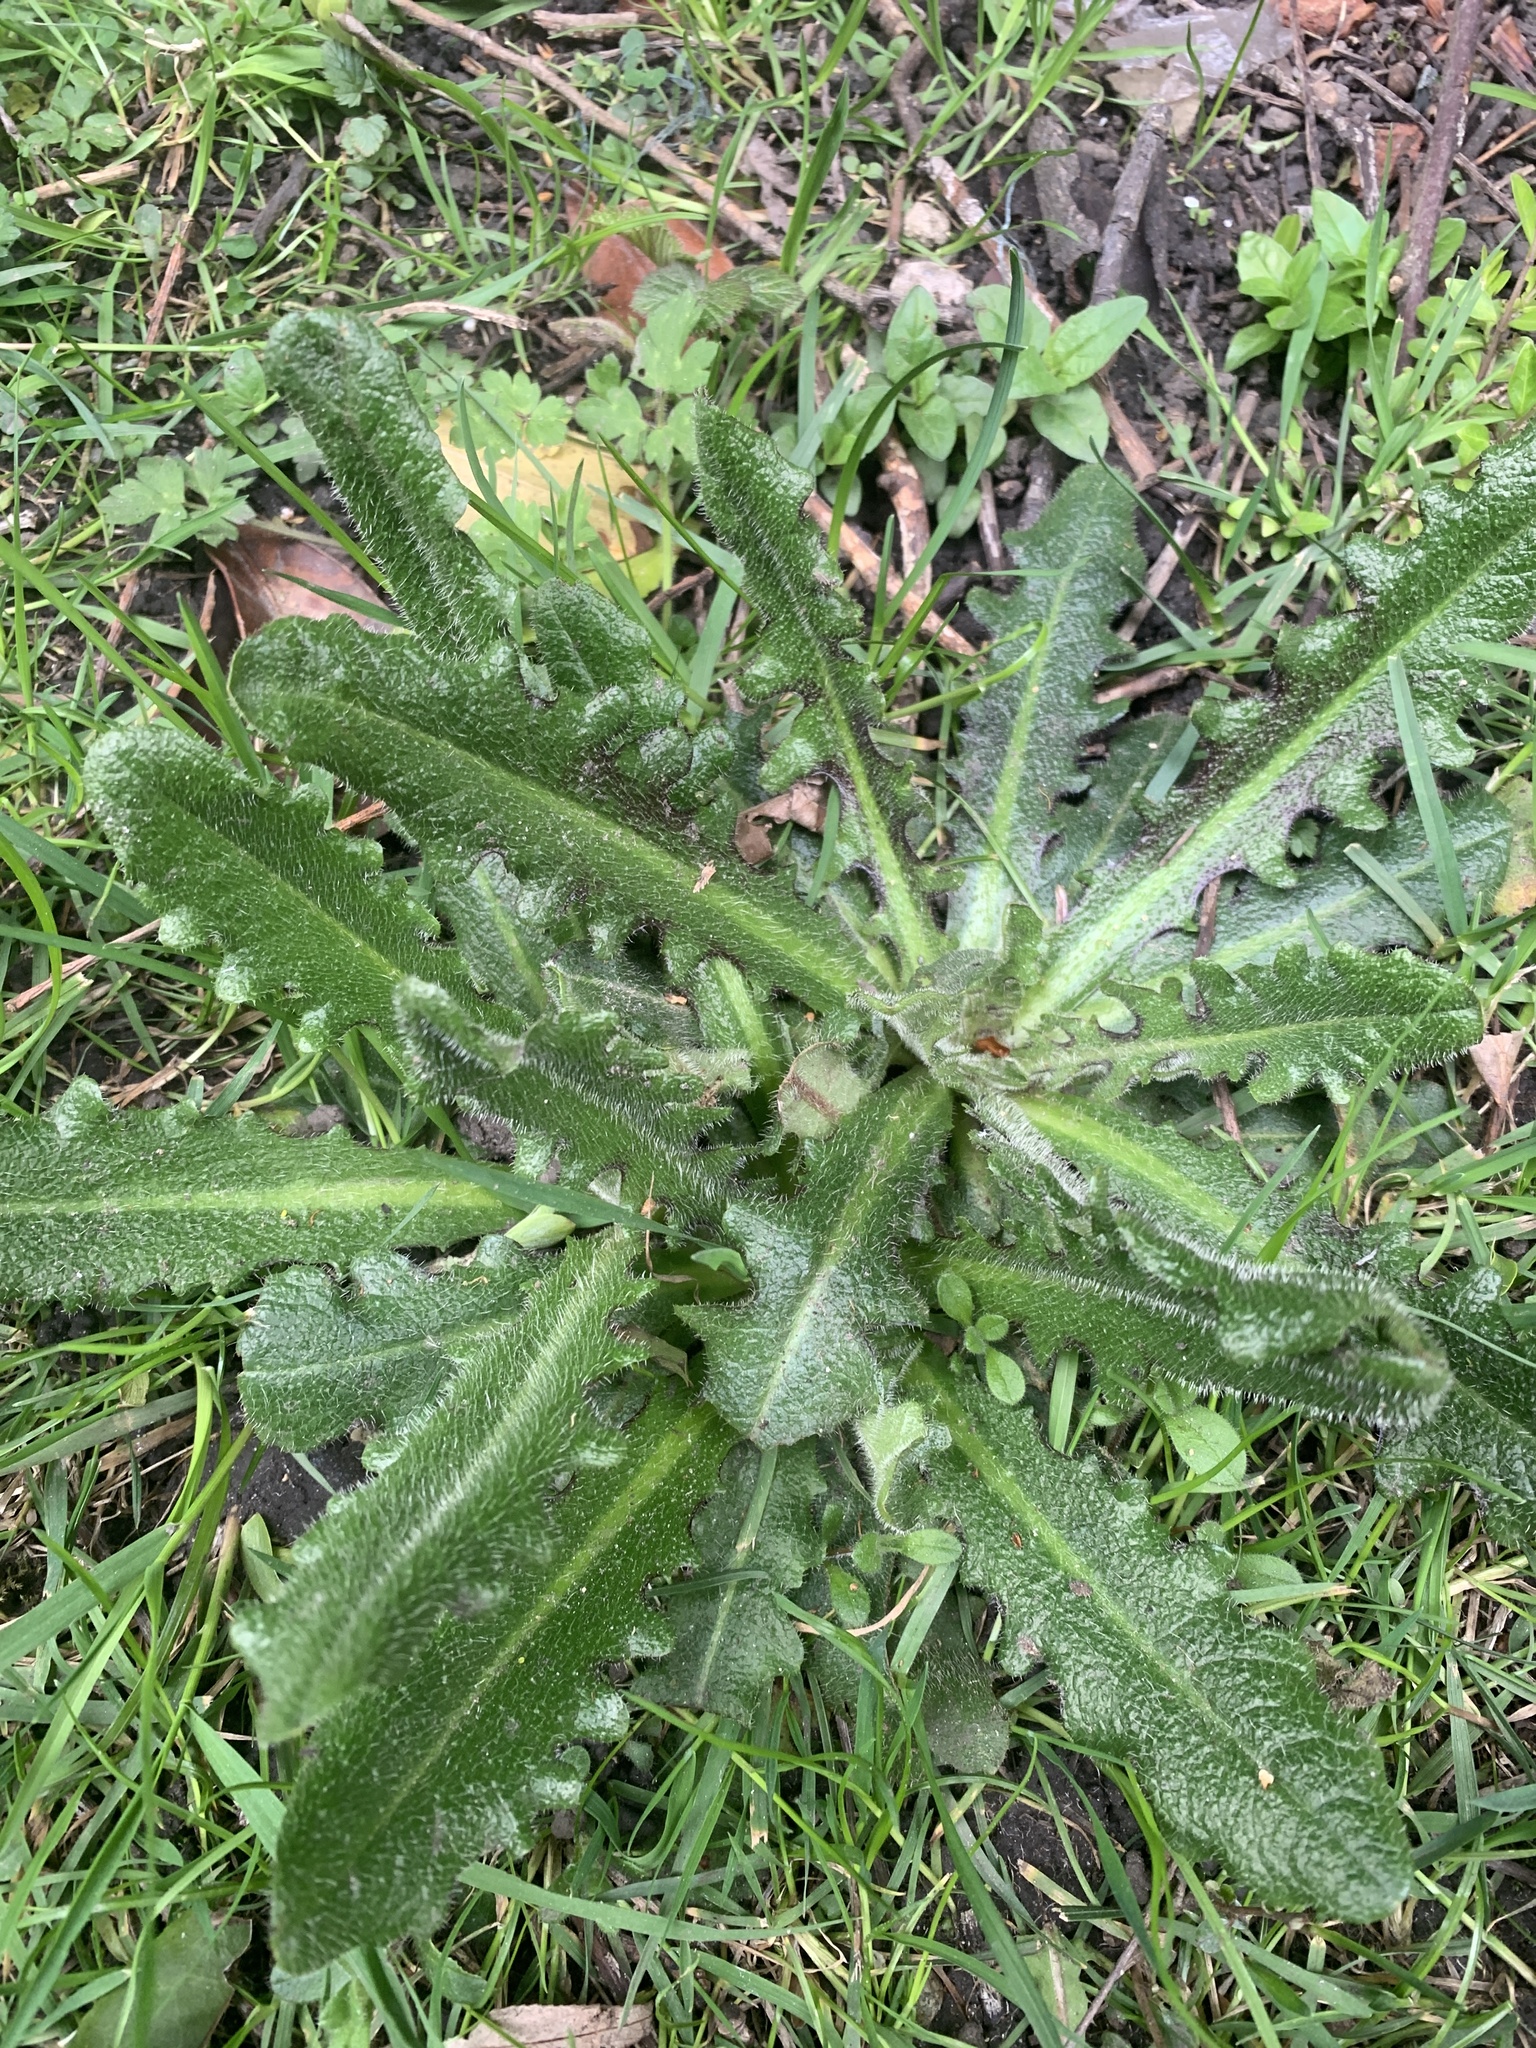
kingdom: Plantae
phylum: Tracheophyta
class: Magnoliopsida
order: Asterales
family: Asteraceae
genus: Hypochaeris
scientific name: Hypochaeris radicata
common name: Flatweed
